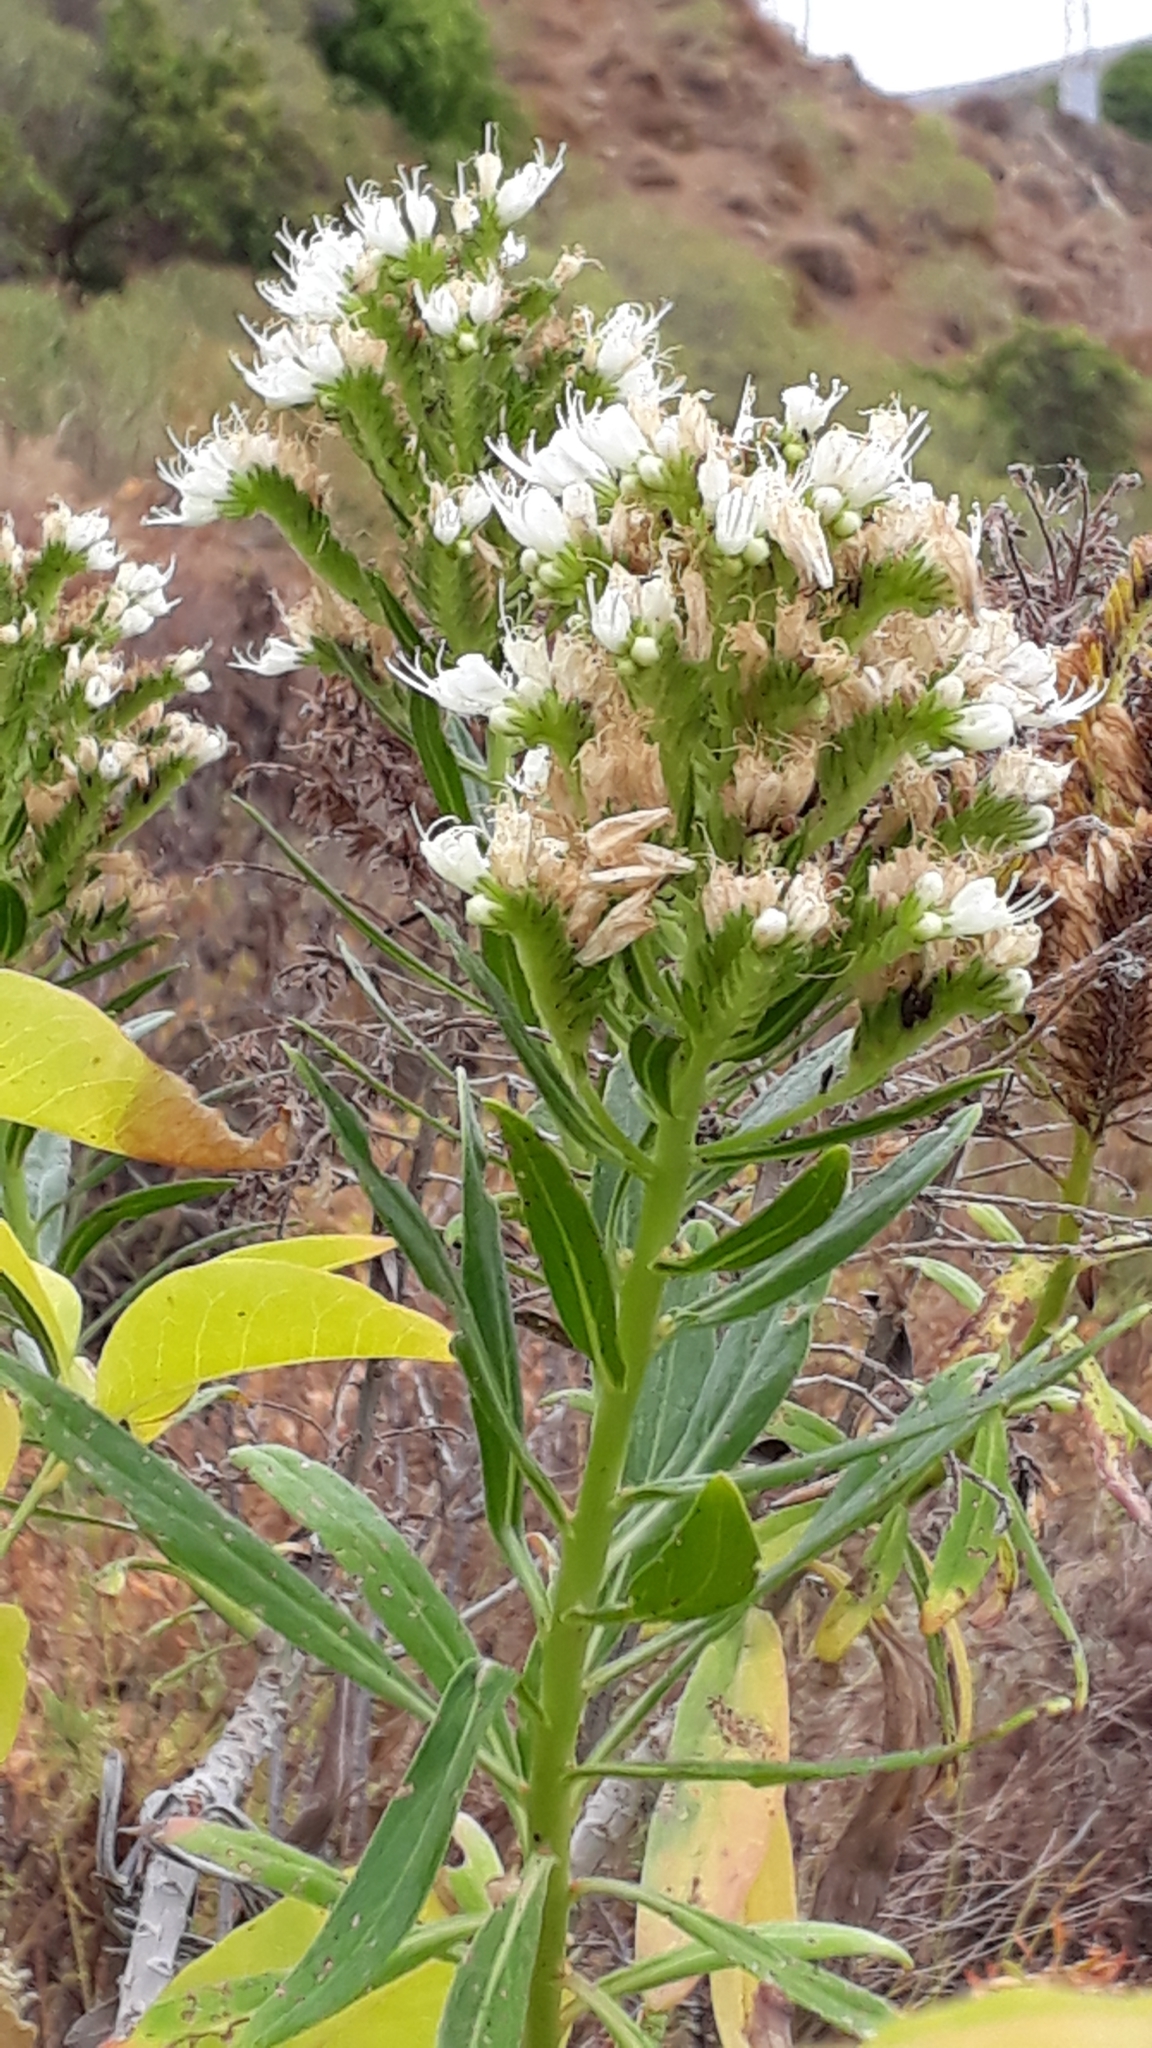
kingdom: Plantae
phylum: Tracheophyta
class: Magnoliopsida
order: Boraginales
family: Boraginaceae
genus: Echium
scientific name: Echium giganteum
